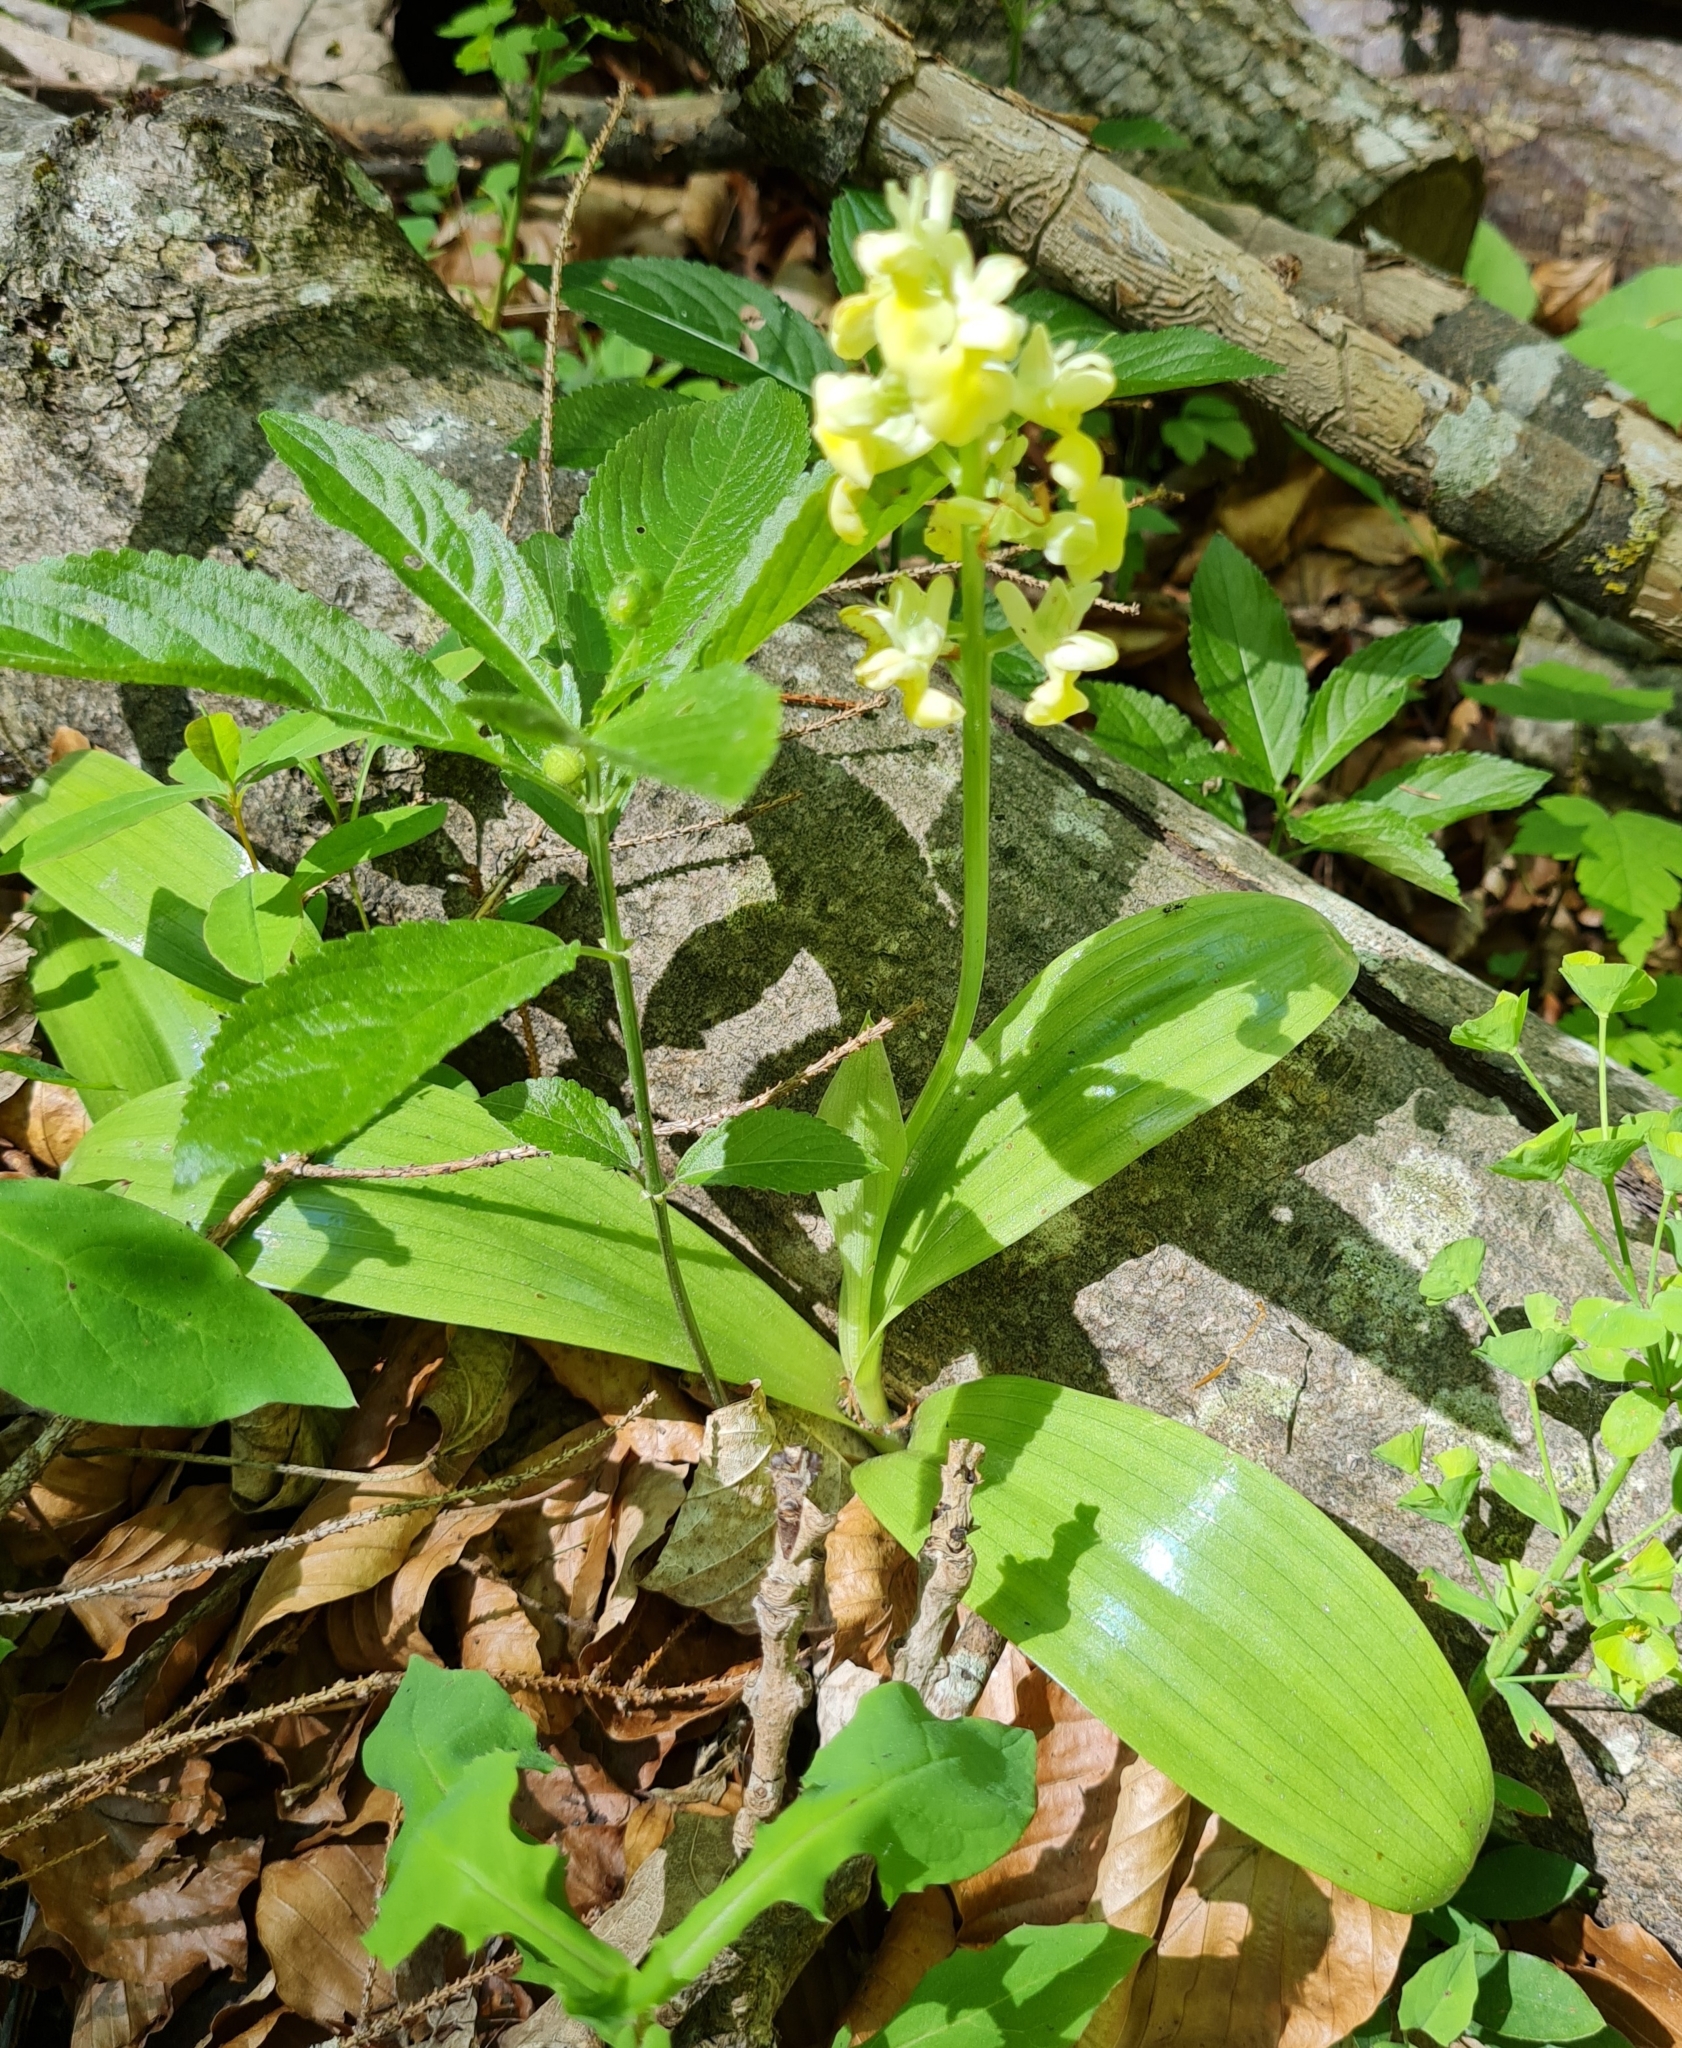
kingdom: Plantae
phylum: Tracheophyta
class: Liliopsida
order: Asparagales
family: Orchidaceae
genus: Orchis
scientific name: Orchis pallens
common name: Pale-flowered orchid
